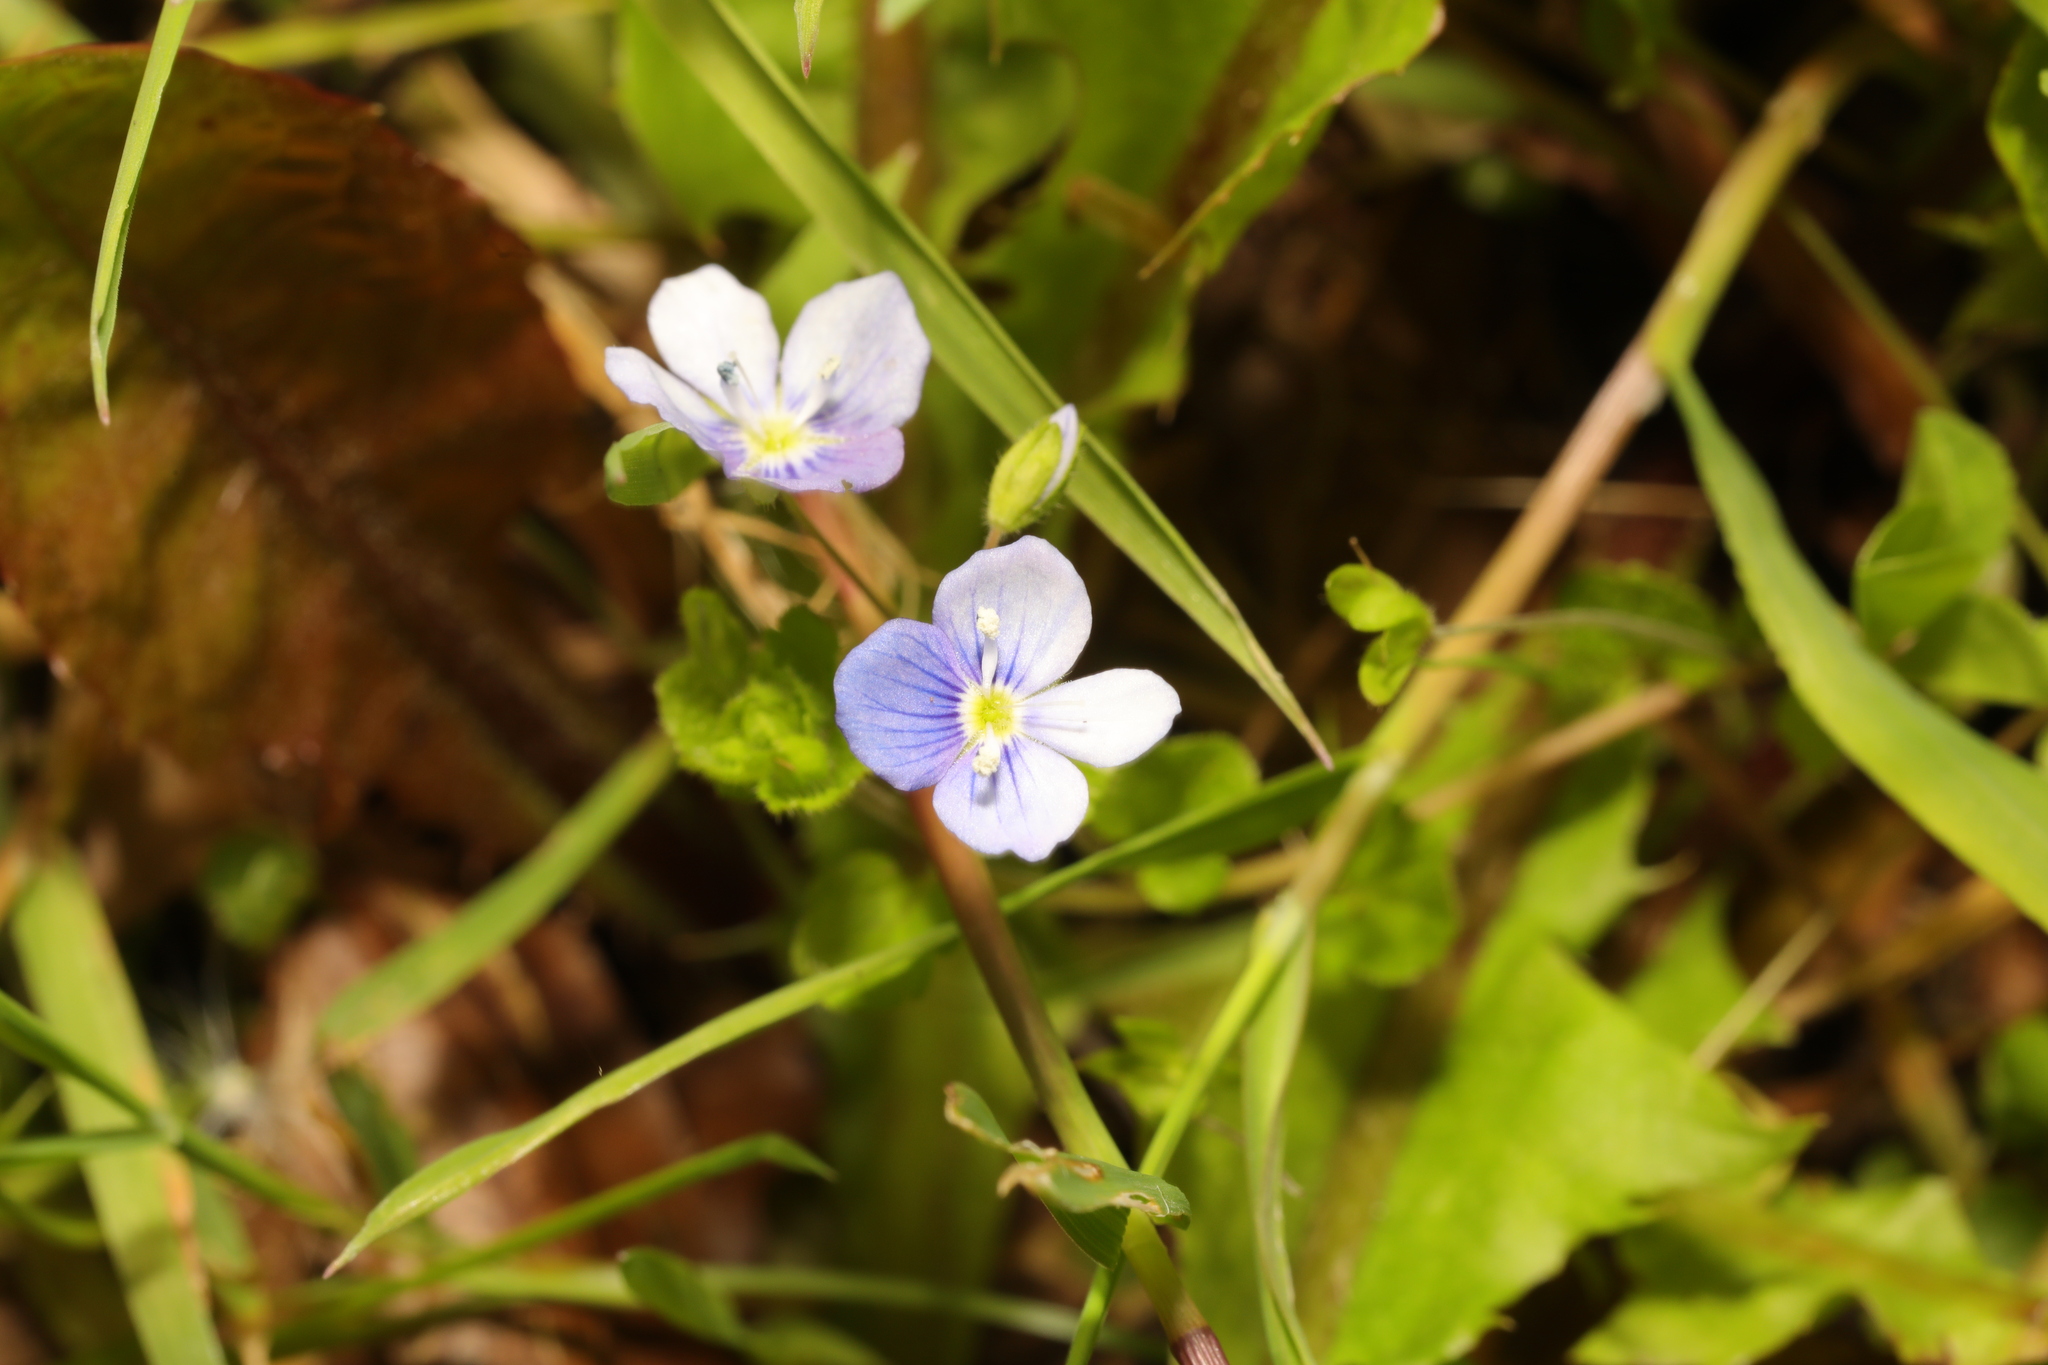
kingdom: Plantae
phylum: Tracheophyta
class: Magnoliopsida
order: Lamiales
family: Plantaginaceae
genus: Veronica
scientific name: Veronica filiformis
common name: Slender speedwell
